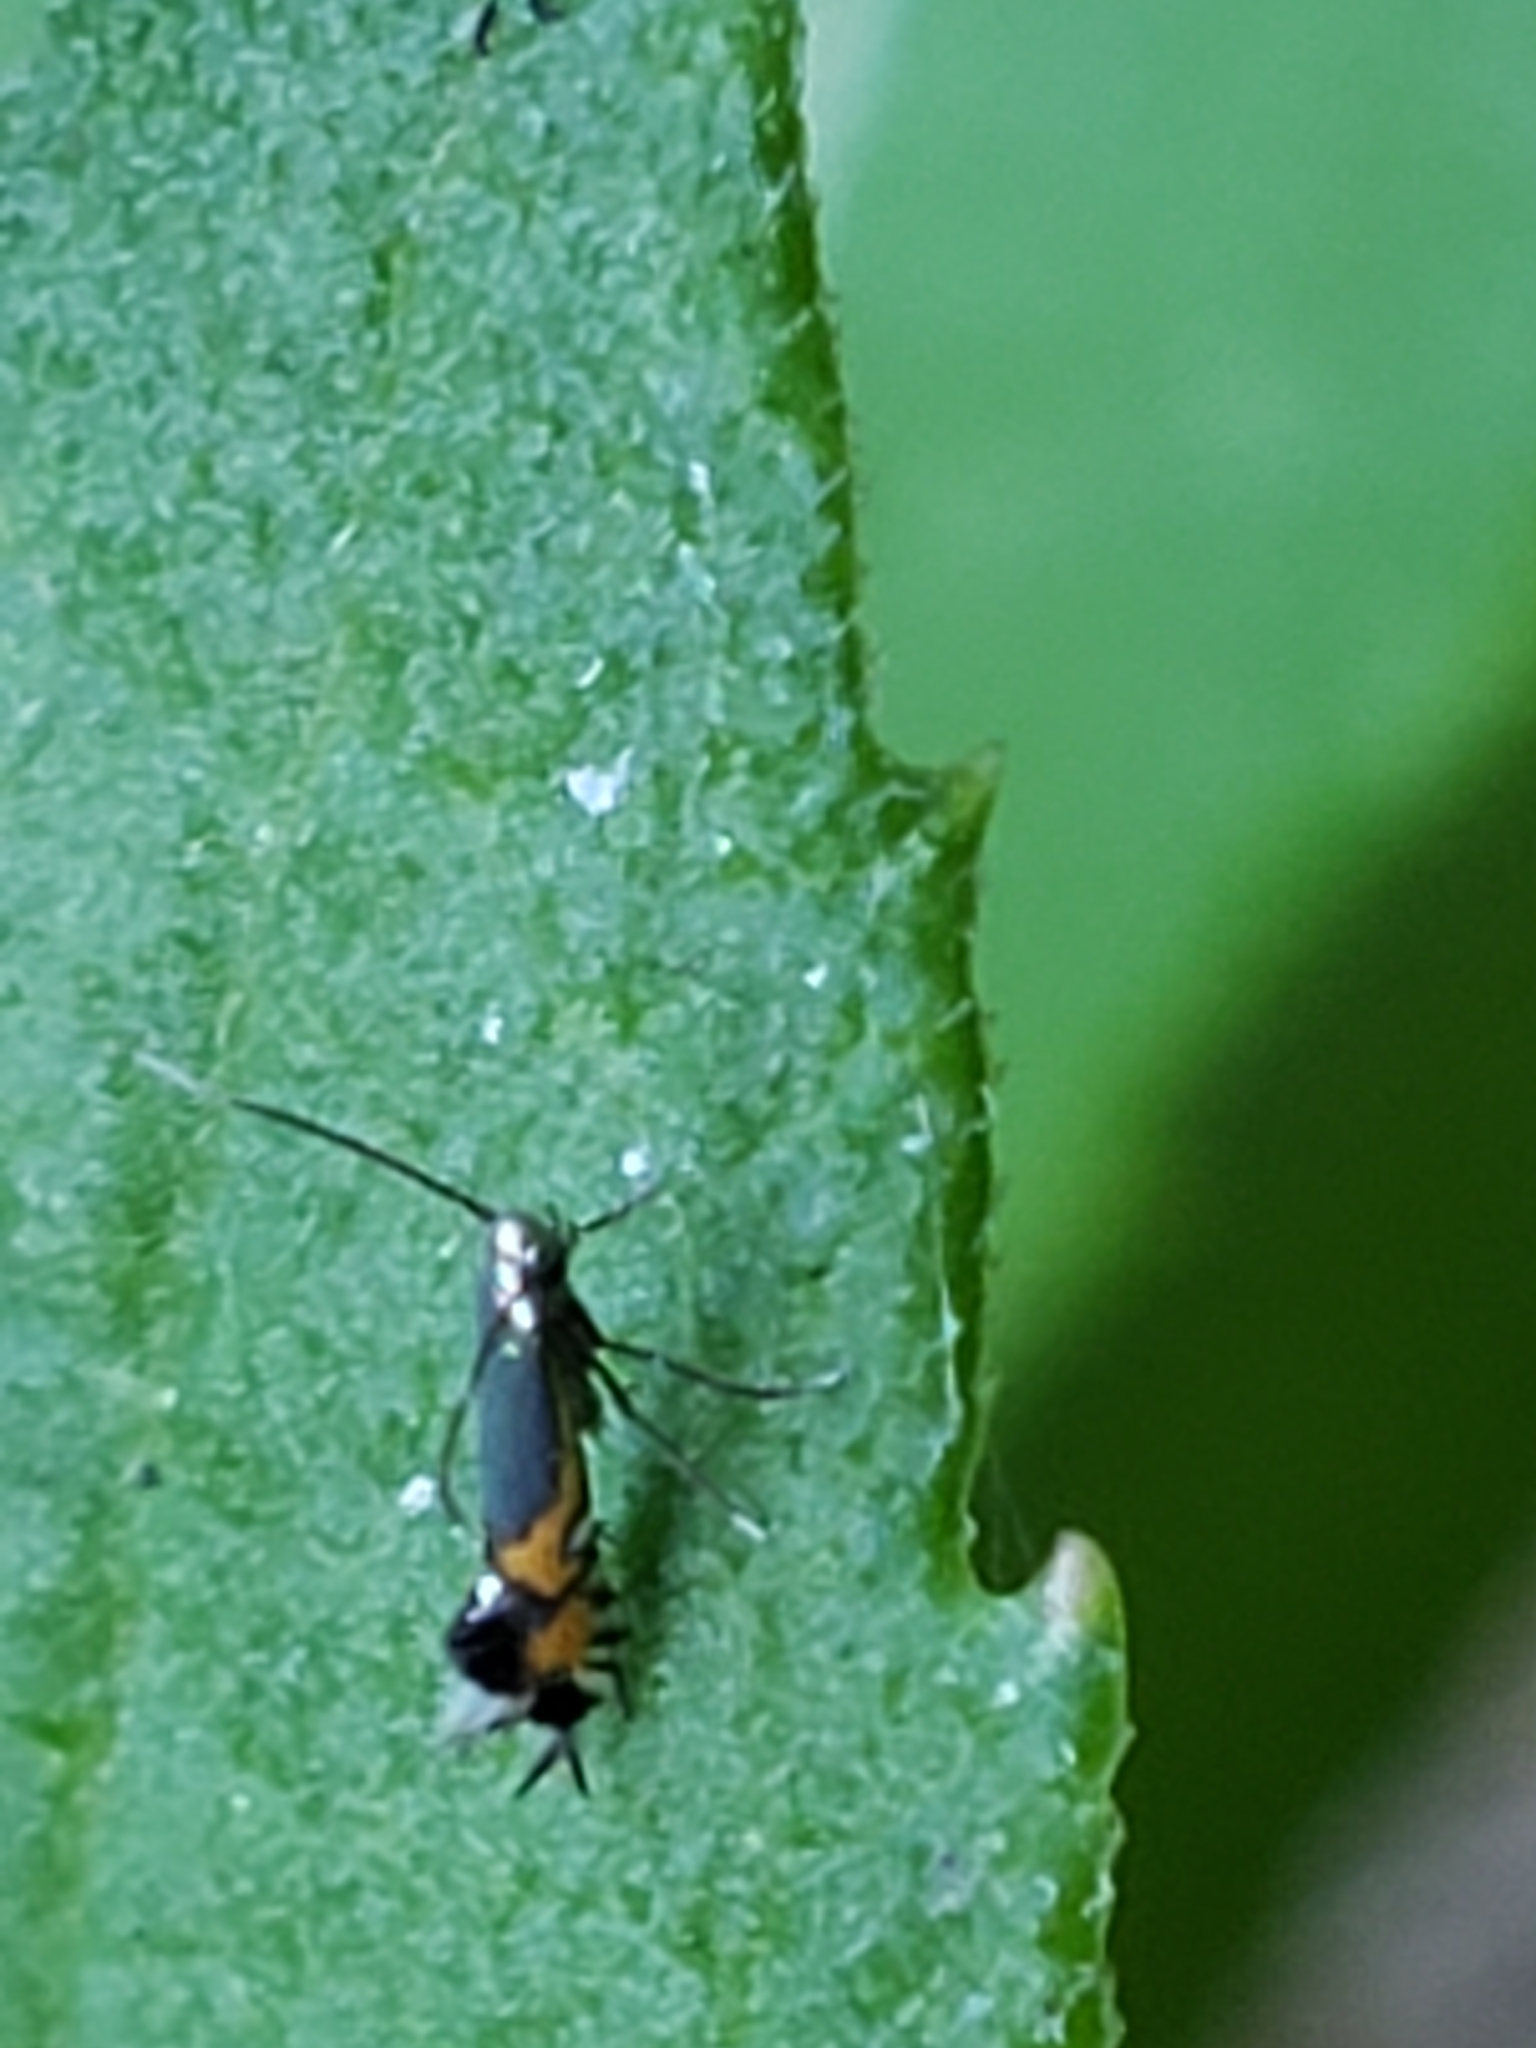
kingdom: Animalia
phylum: Arthropoda
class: Insecta
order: Lepidoptera
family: Gracillariidae
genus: Phyllocnistis
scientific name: Phyllocnistis insignis
